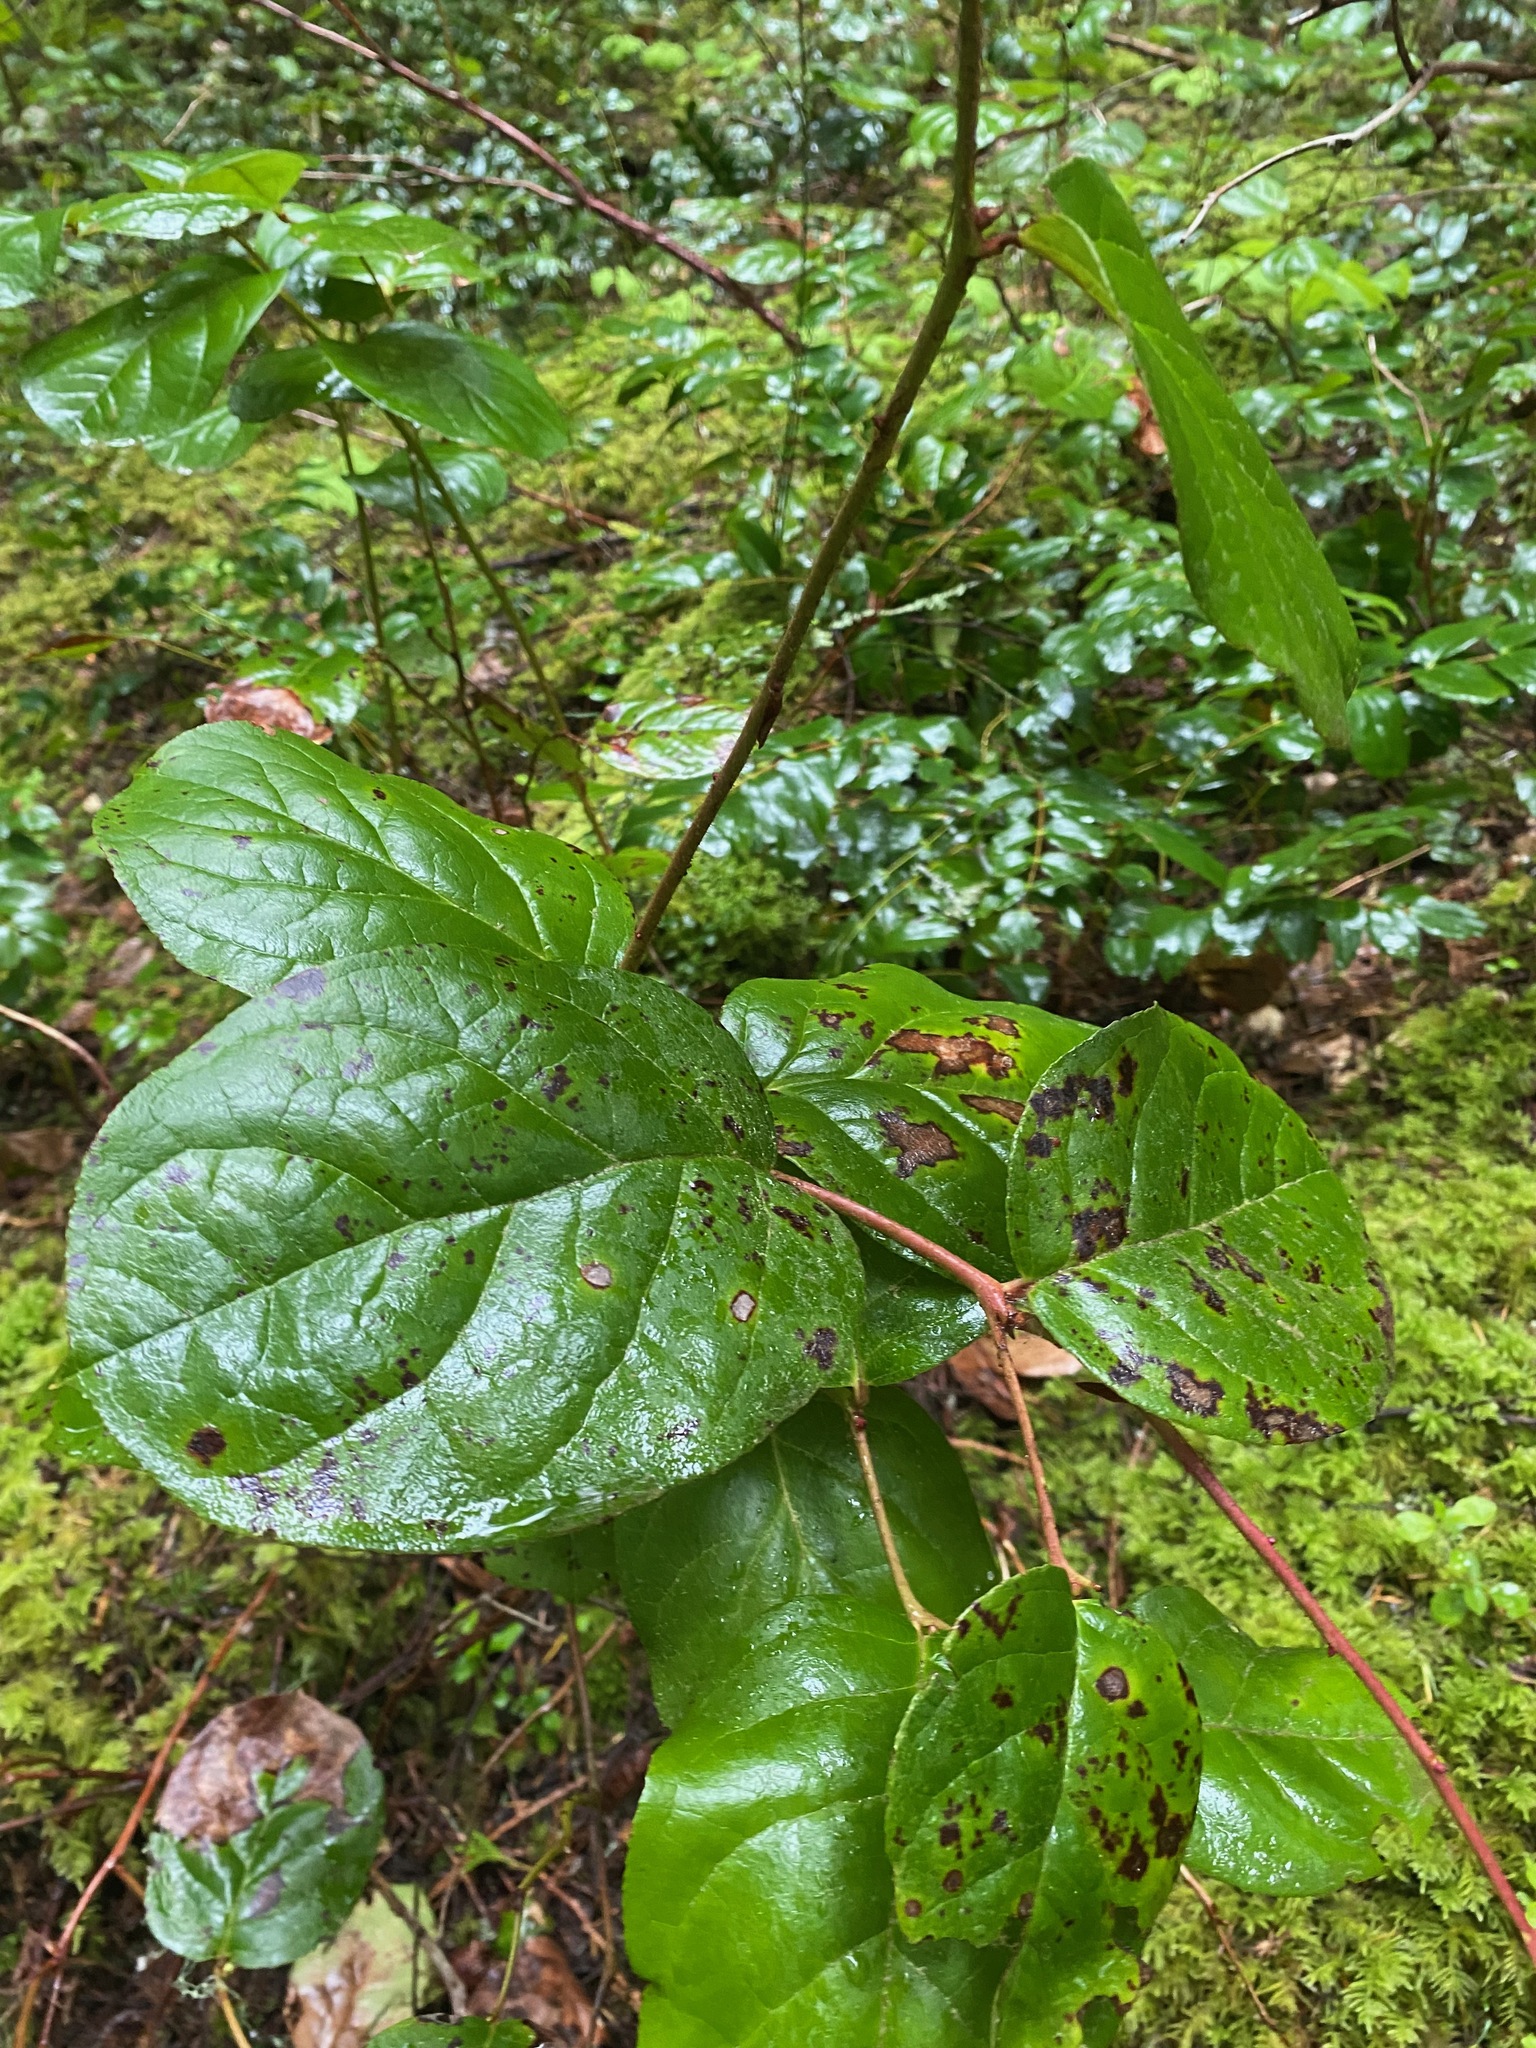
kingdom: Plantae
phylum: Tracheophyta
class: Magnoliopsida
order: Ericales
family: Ericaceae
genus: Gaultheria
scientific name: Gaultheria shallon
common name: Shallon
